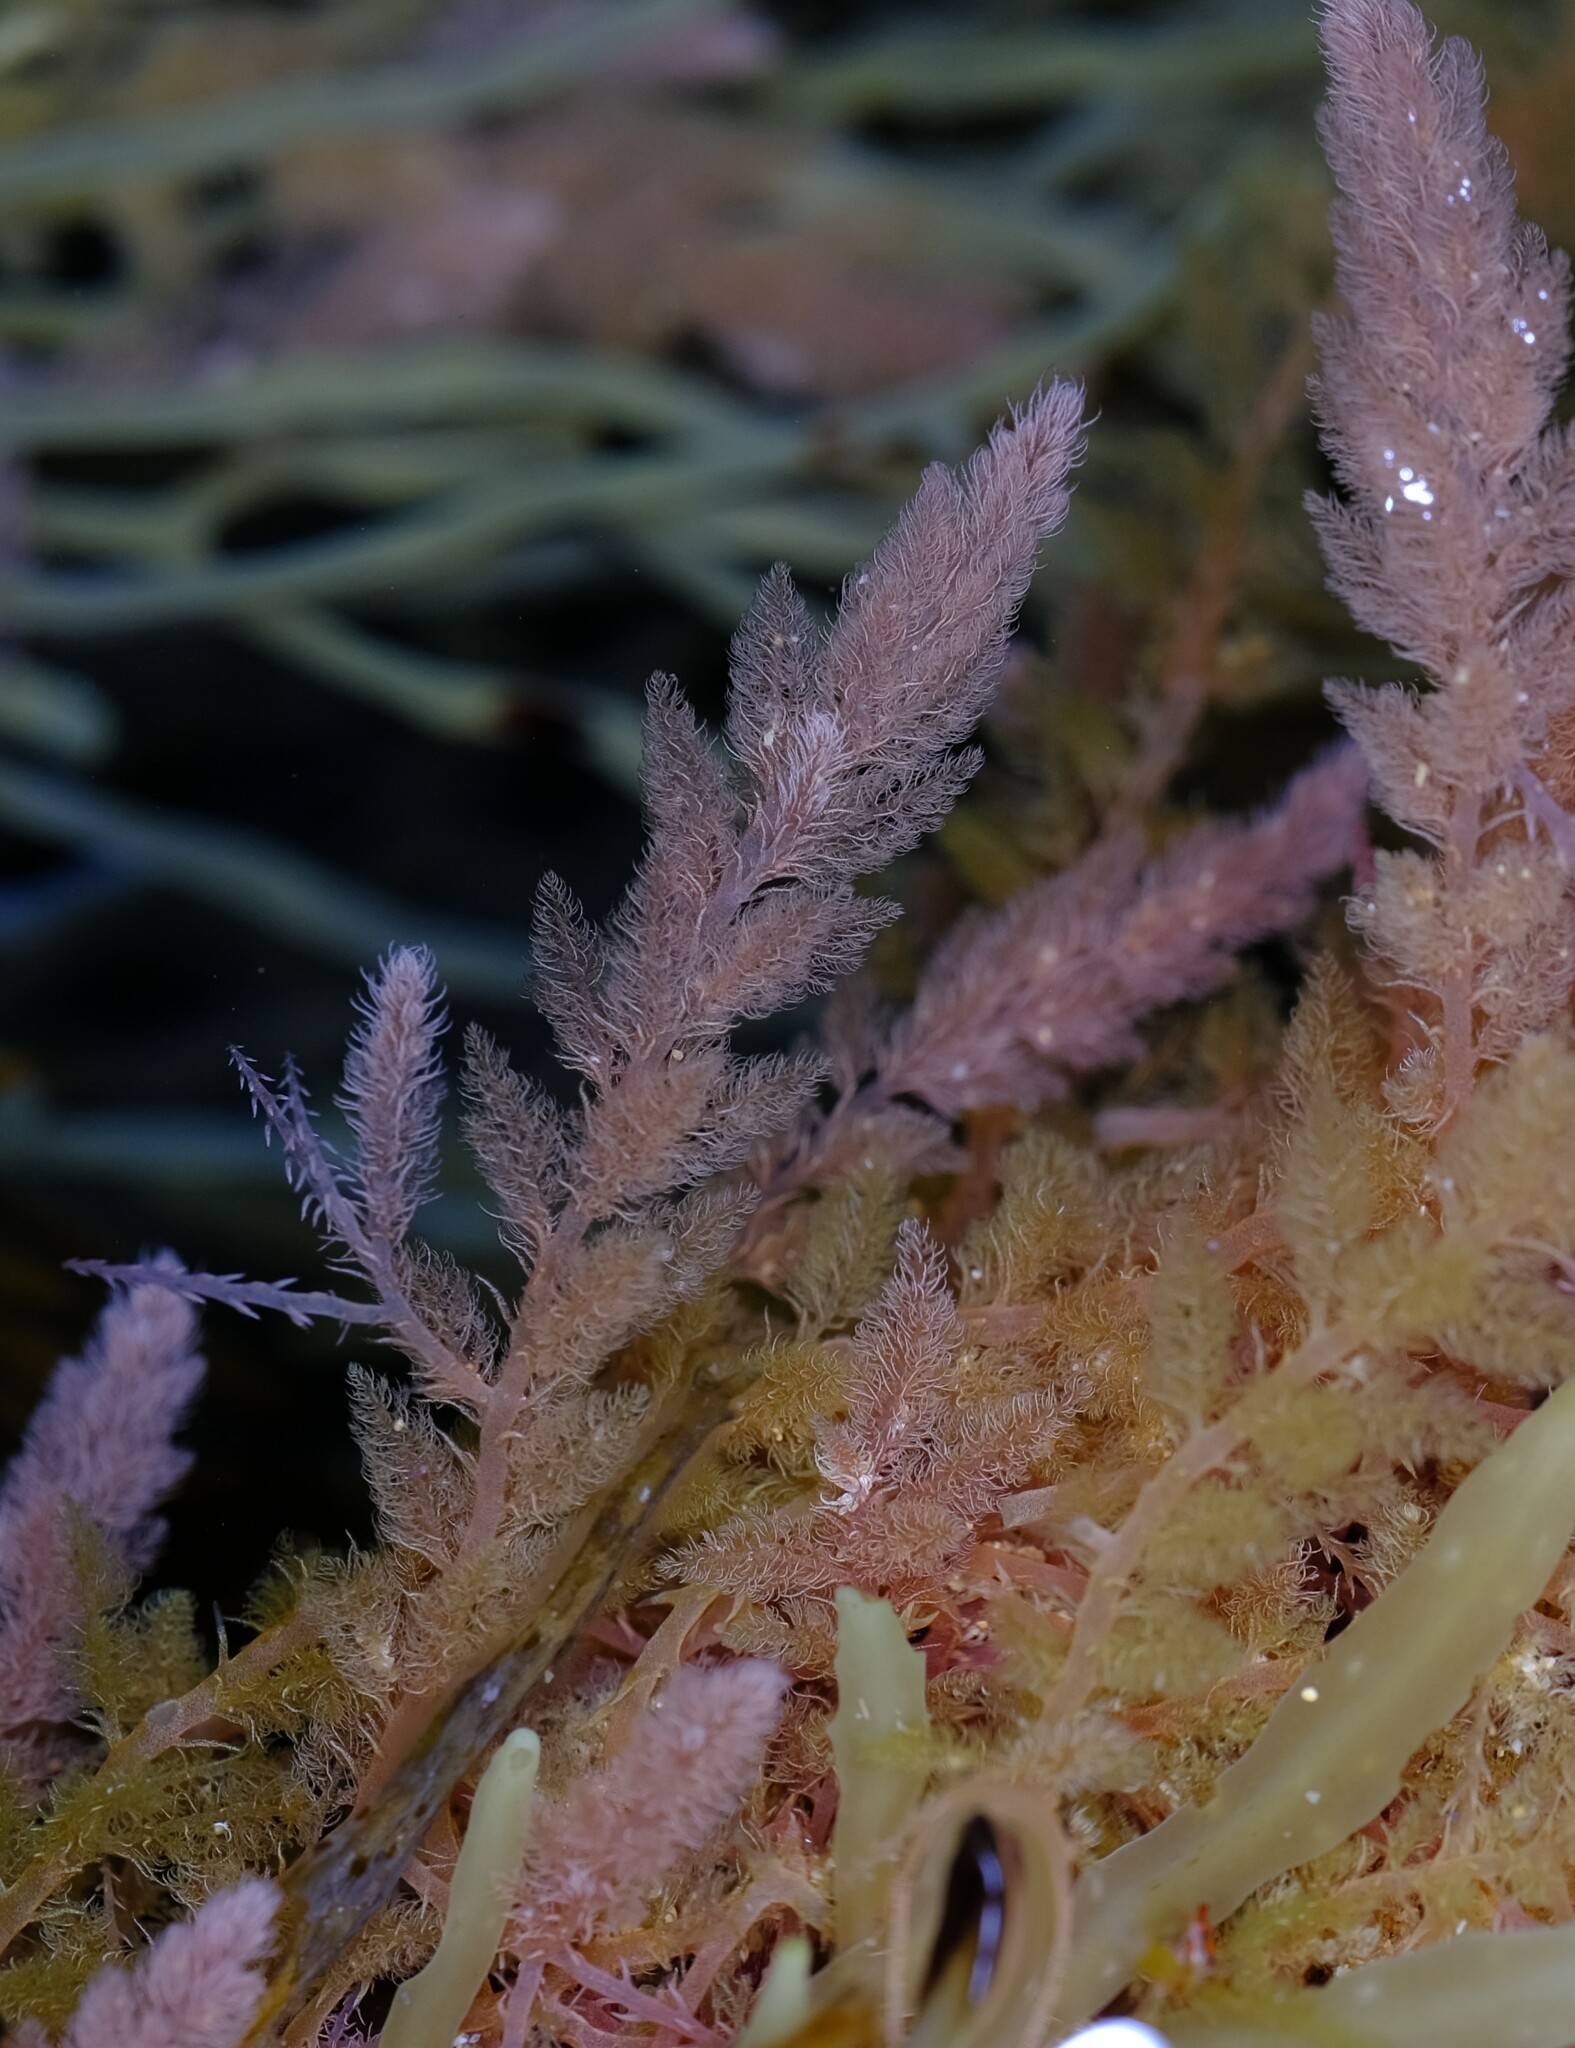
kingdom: Plantae
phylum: Rhodophyta
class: Florideophyceae
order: Bonnemaisoniales
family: Bonnemaisoniaceae
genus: Asparagopsis
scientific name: Asparagopsis armata
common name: Harpoon weed
